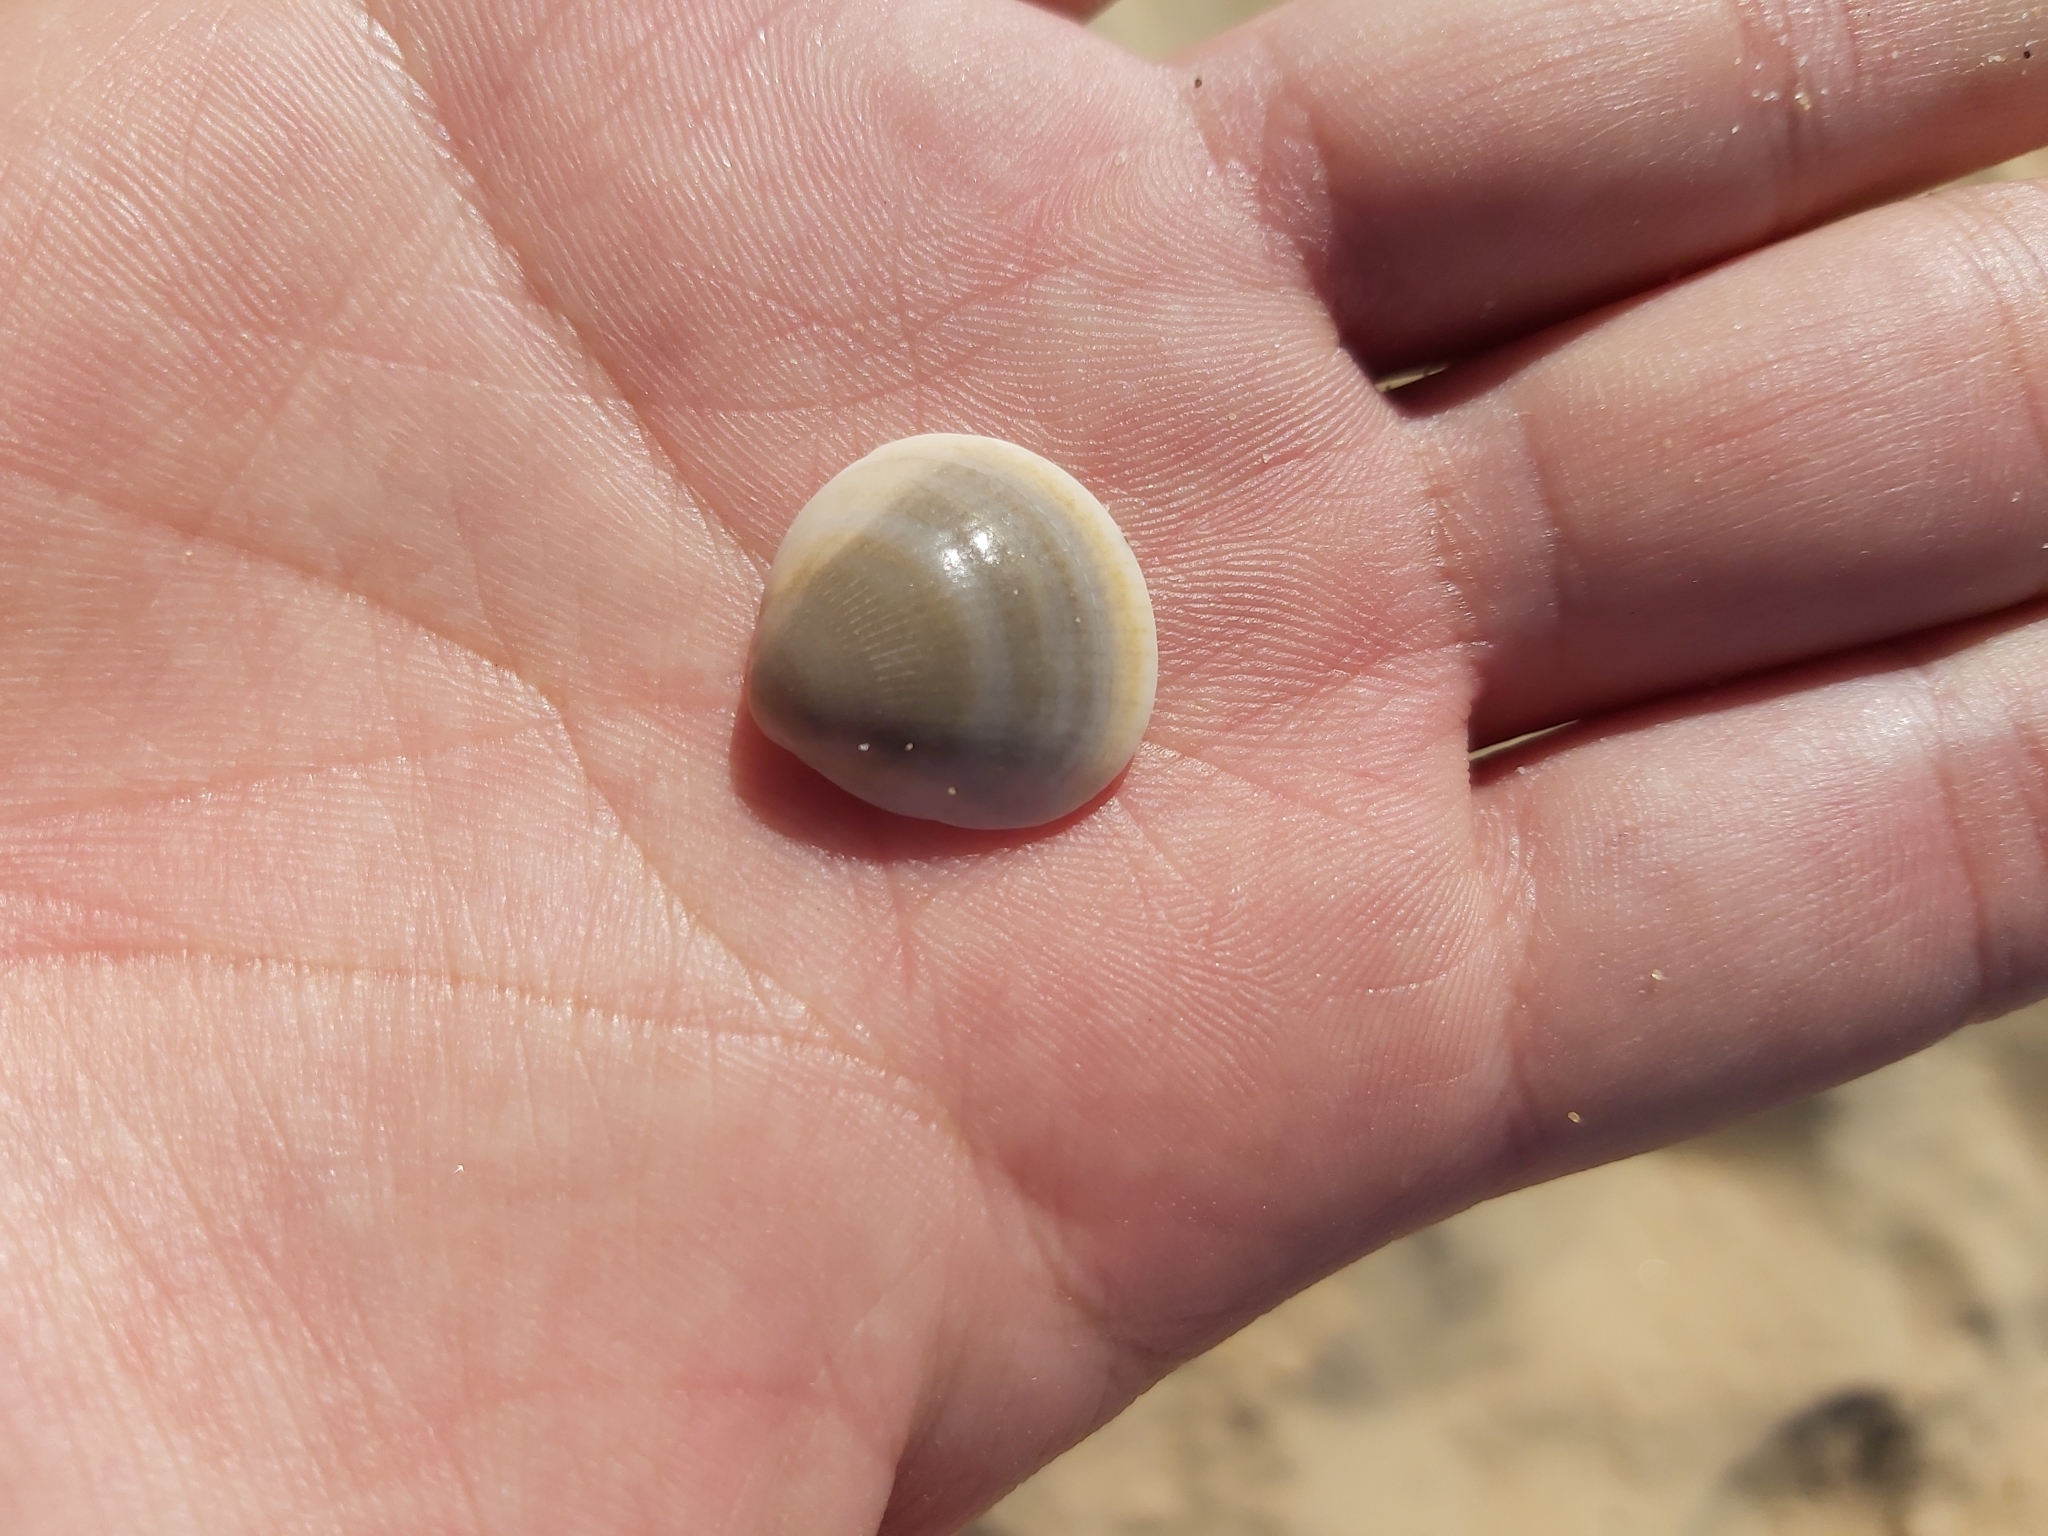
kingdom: Animalia
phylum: Mollusca
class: Bivalvia
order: Arcida
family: Glycymerididae
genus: Glycymeris
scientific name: Glycymeris grayana
